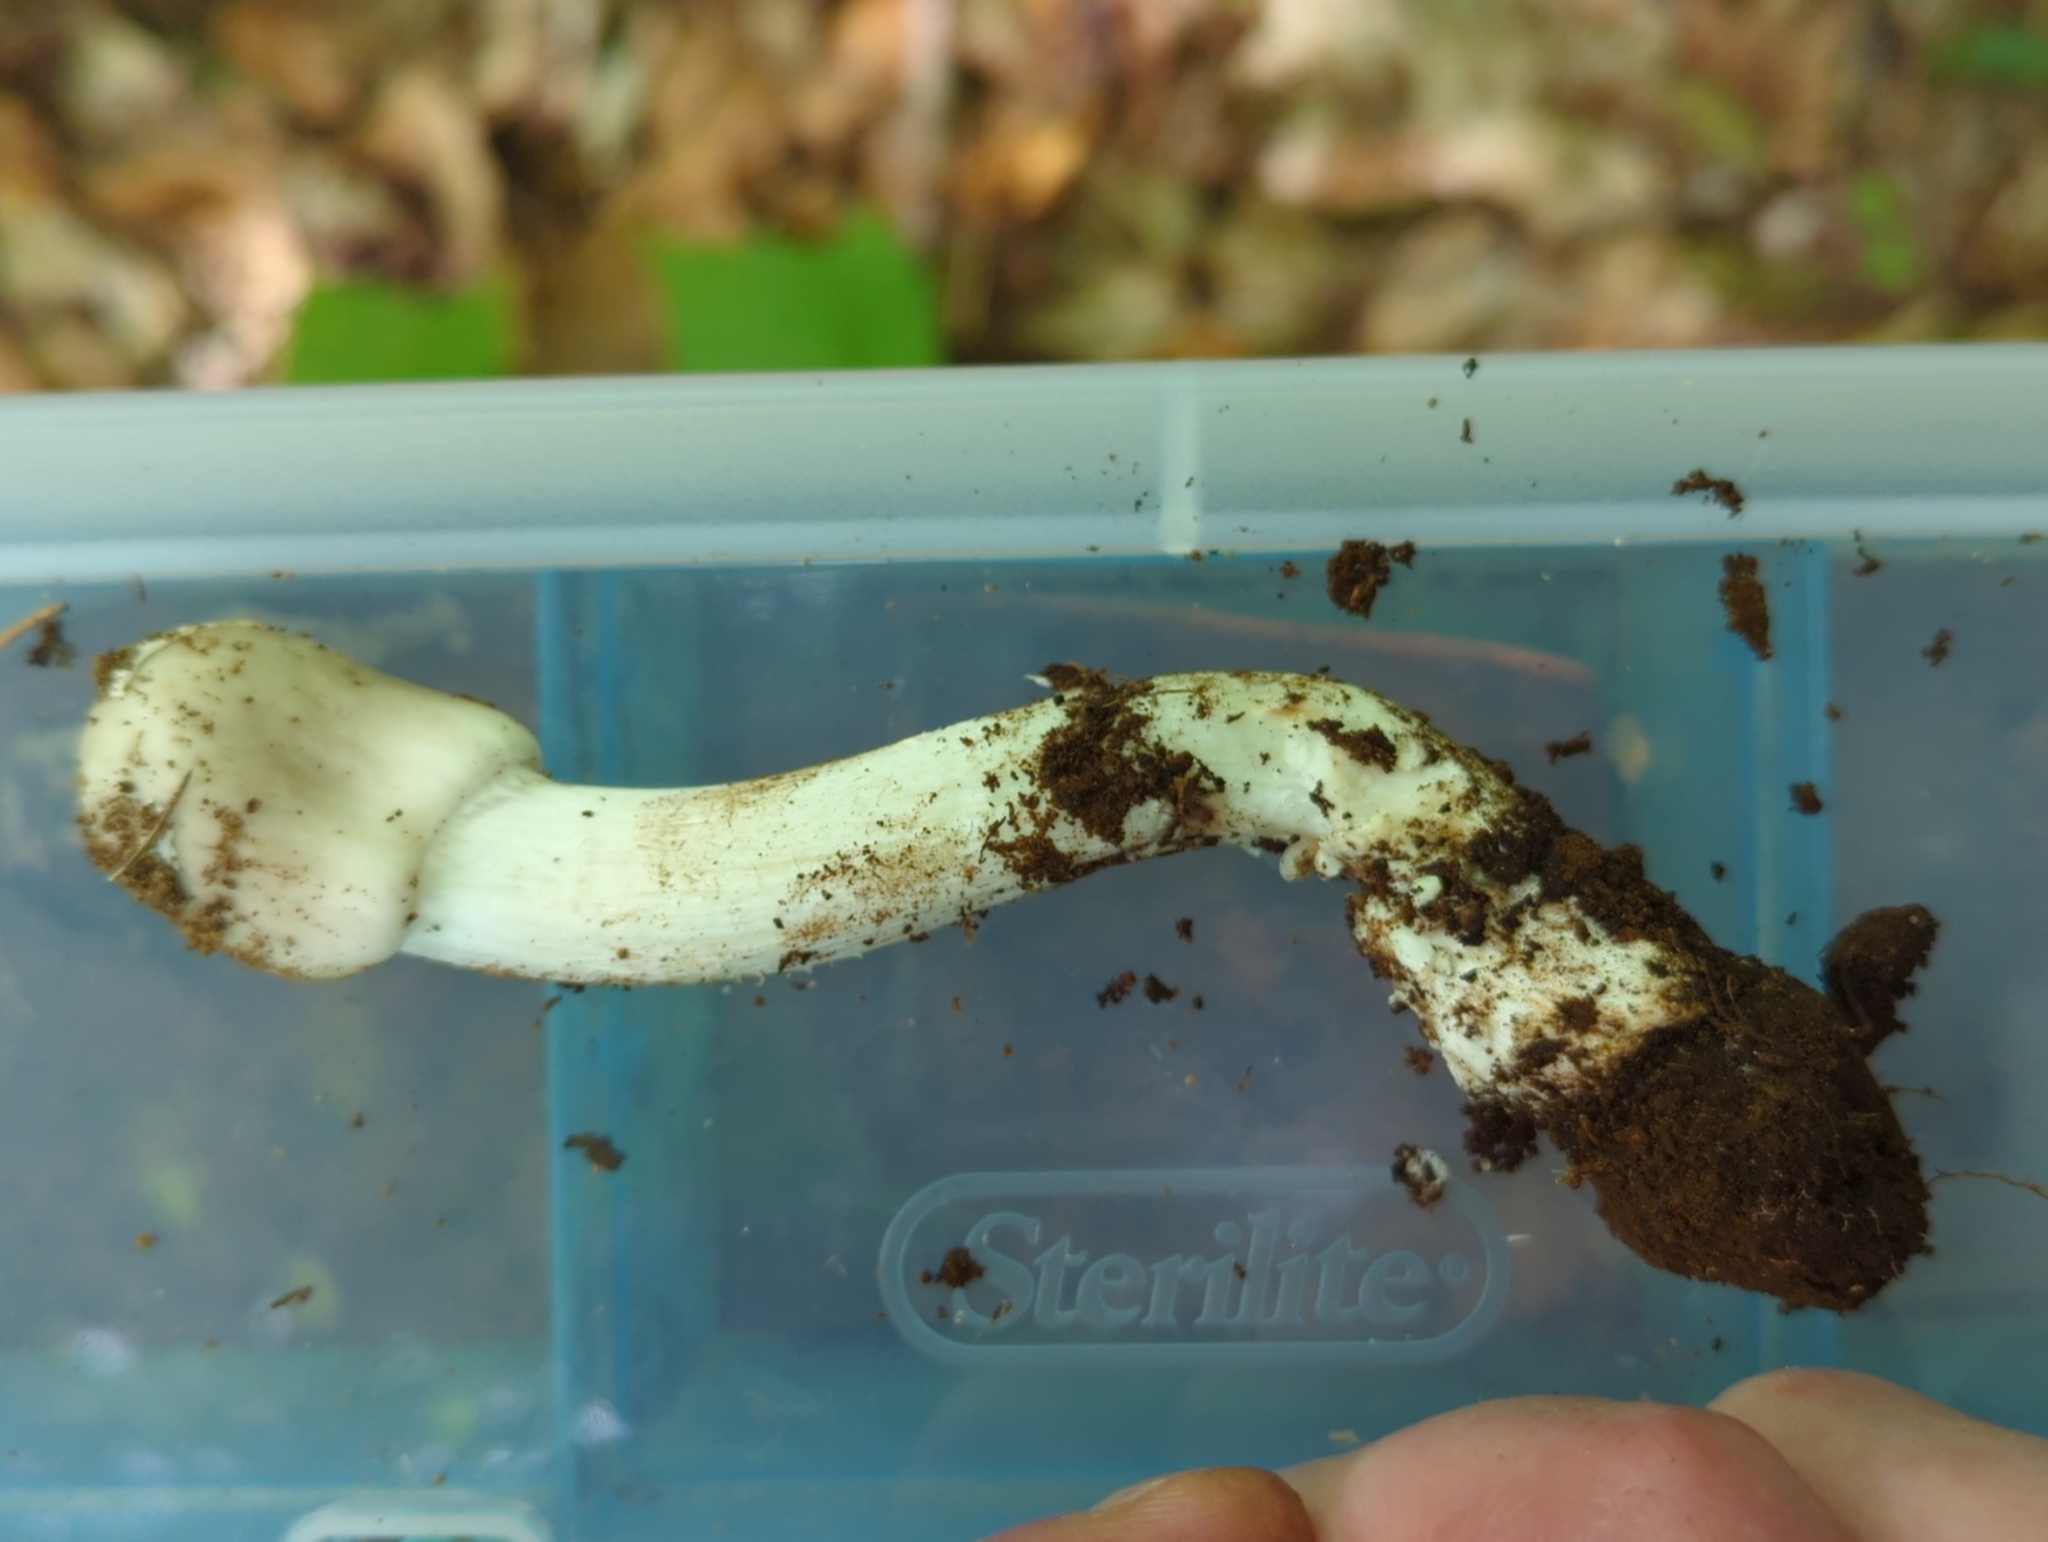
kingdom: Fungi
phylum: Basidiomycota
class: Agaricomycetes
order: Agaricales
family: Amanitaceae
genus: Amanita
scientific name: Amanita submaculata
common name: Ball gown amanita
